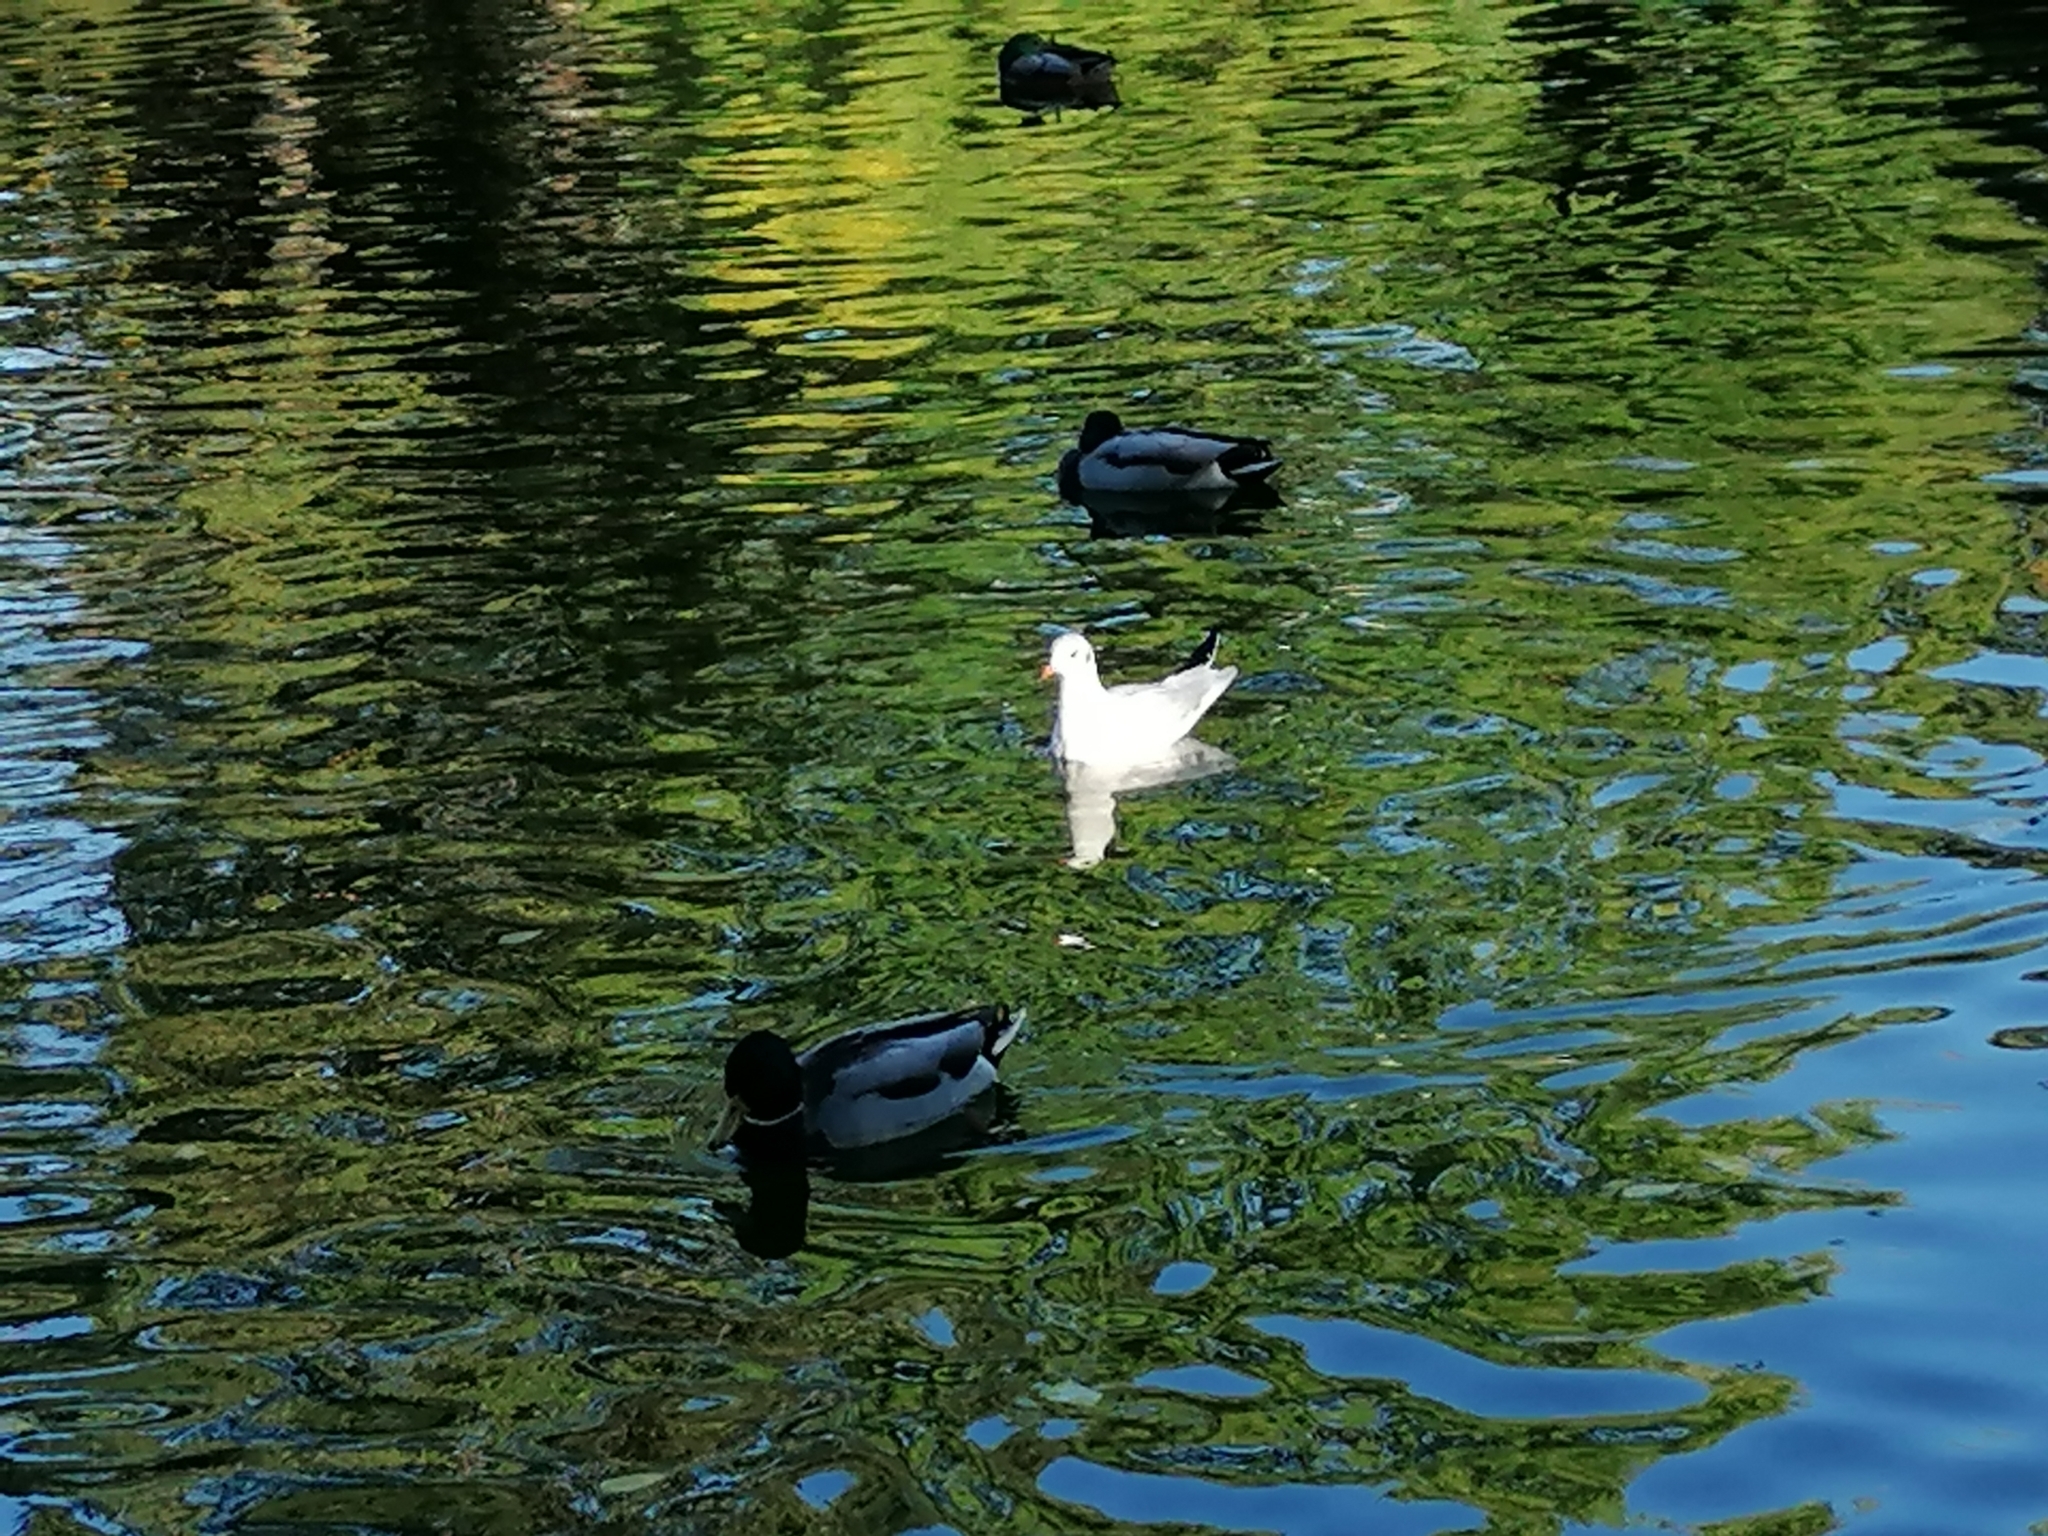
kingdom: Animalia
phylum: Chordata
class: Aves
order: Charadriiformes
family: Laridae
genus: Chroicocephalus
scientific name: Chroicocephalus ridibundus
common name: Black-headed gull
